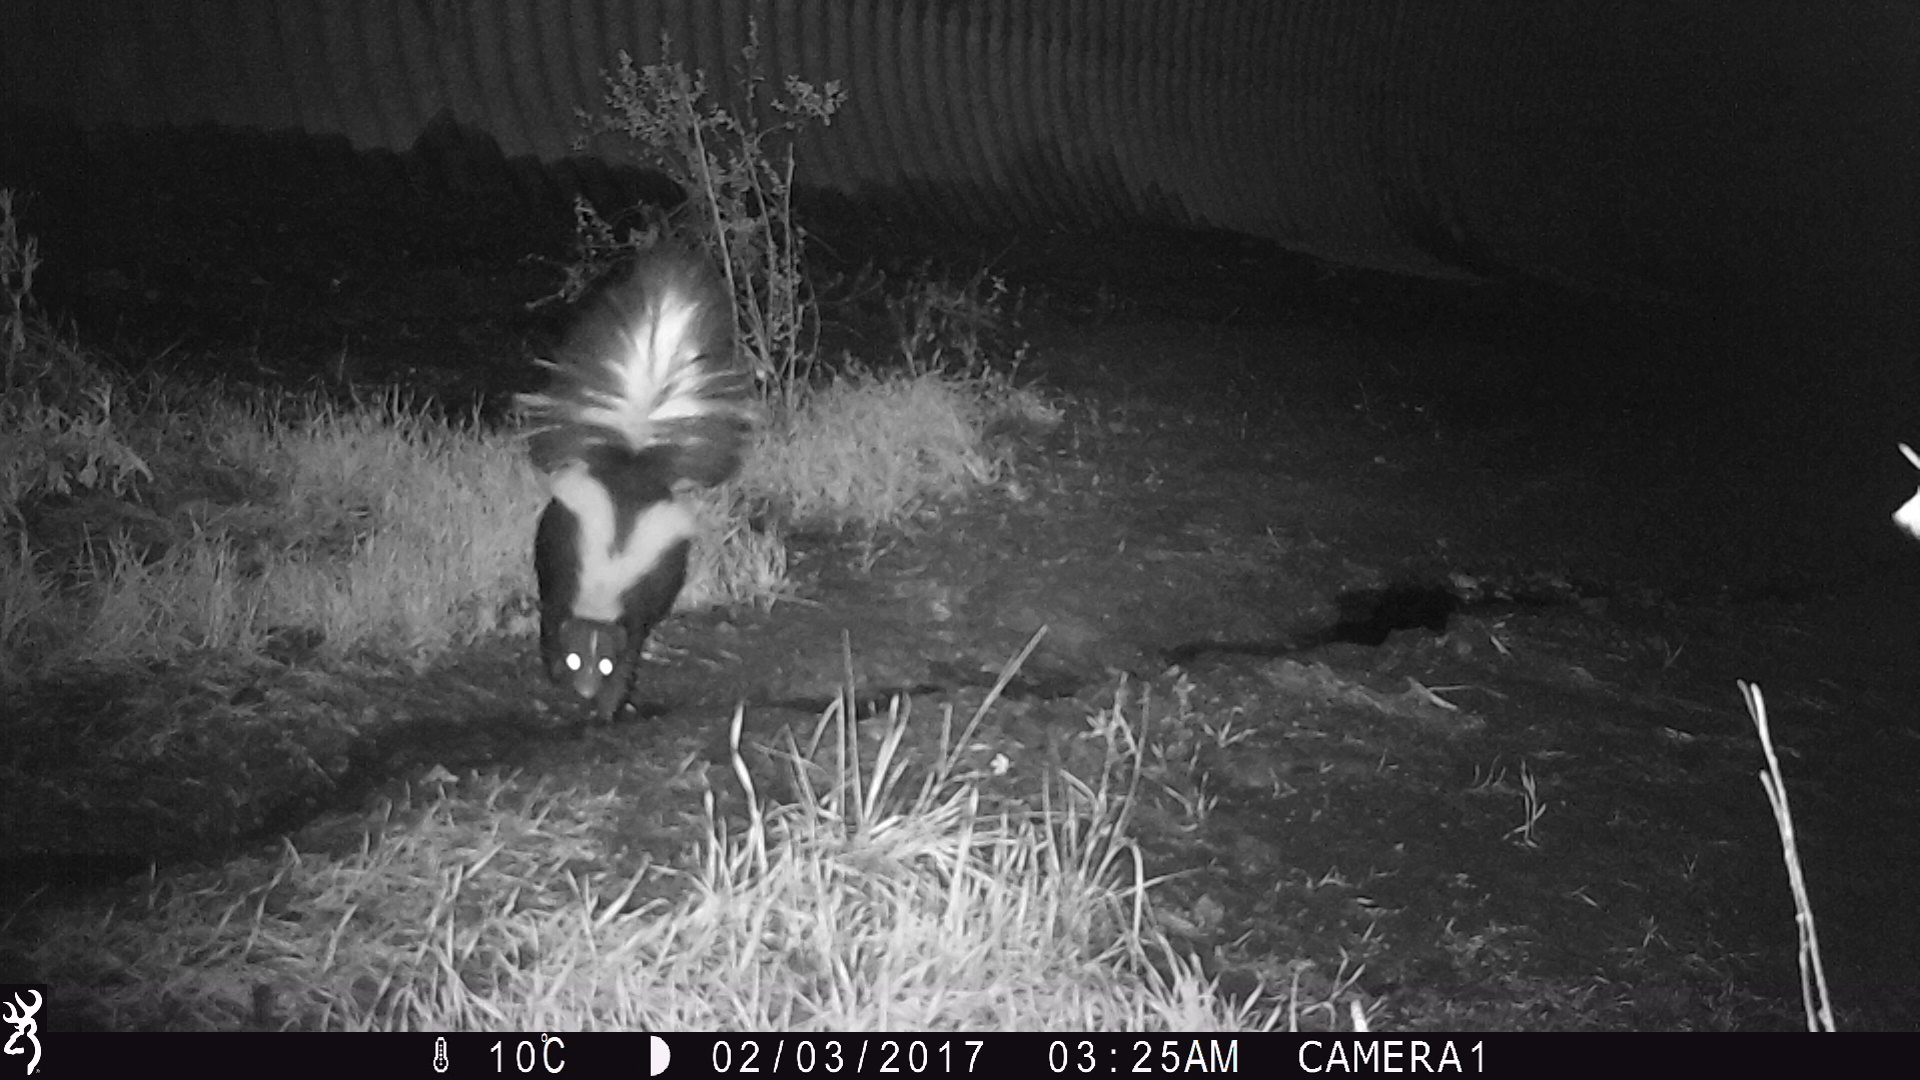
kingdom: Animalia
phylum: Chordata
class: Mammalia
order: Carnivora
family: Mephitidae
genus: Mephitis
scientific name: Mephitis mephitis
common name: Striped skunk
